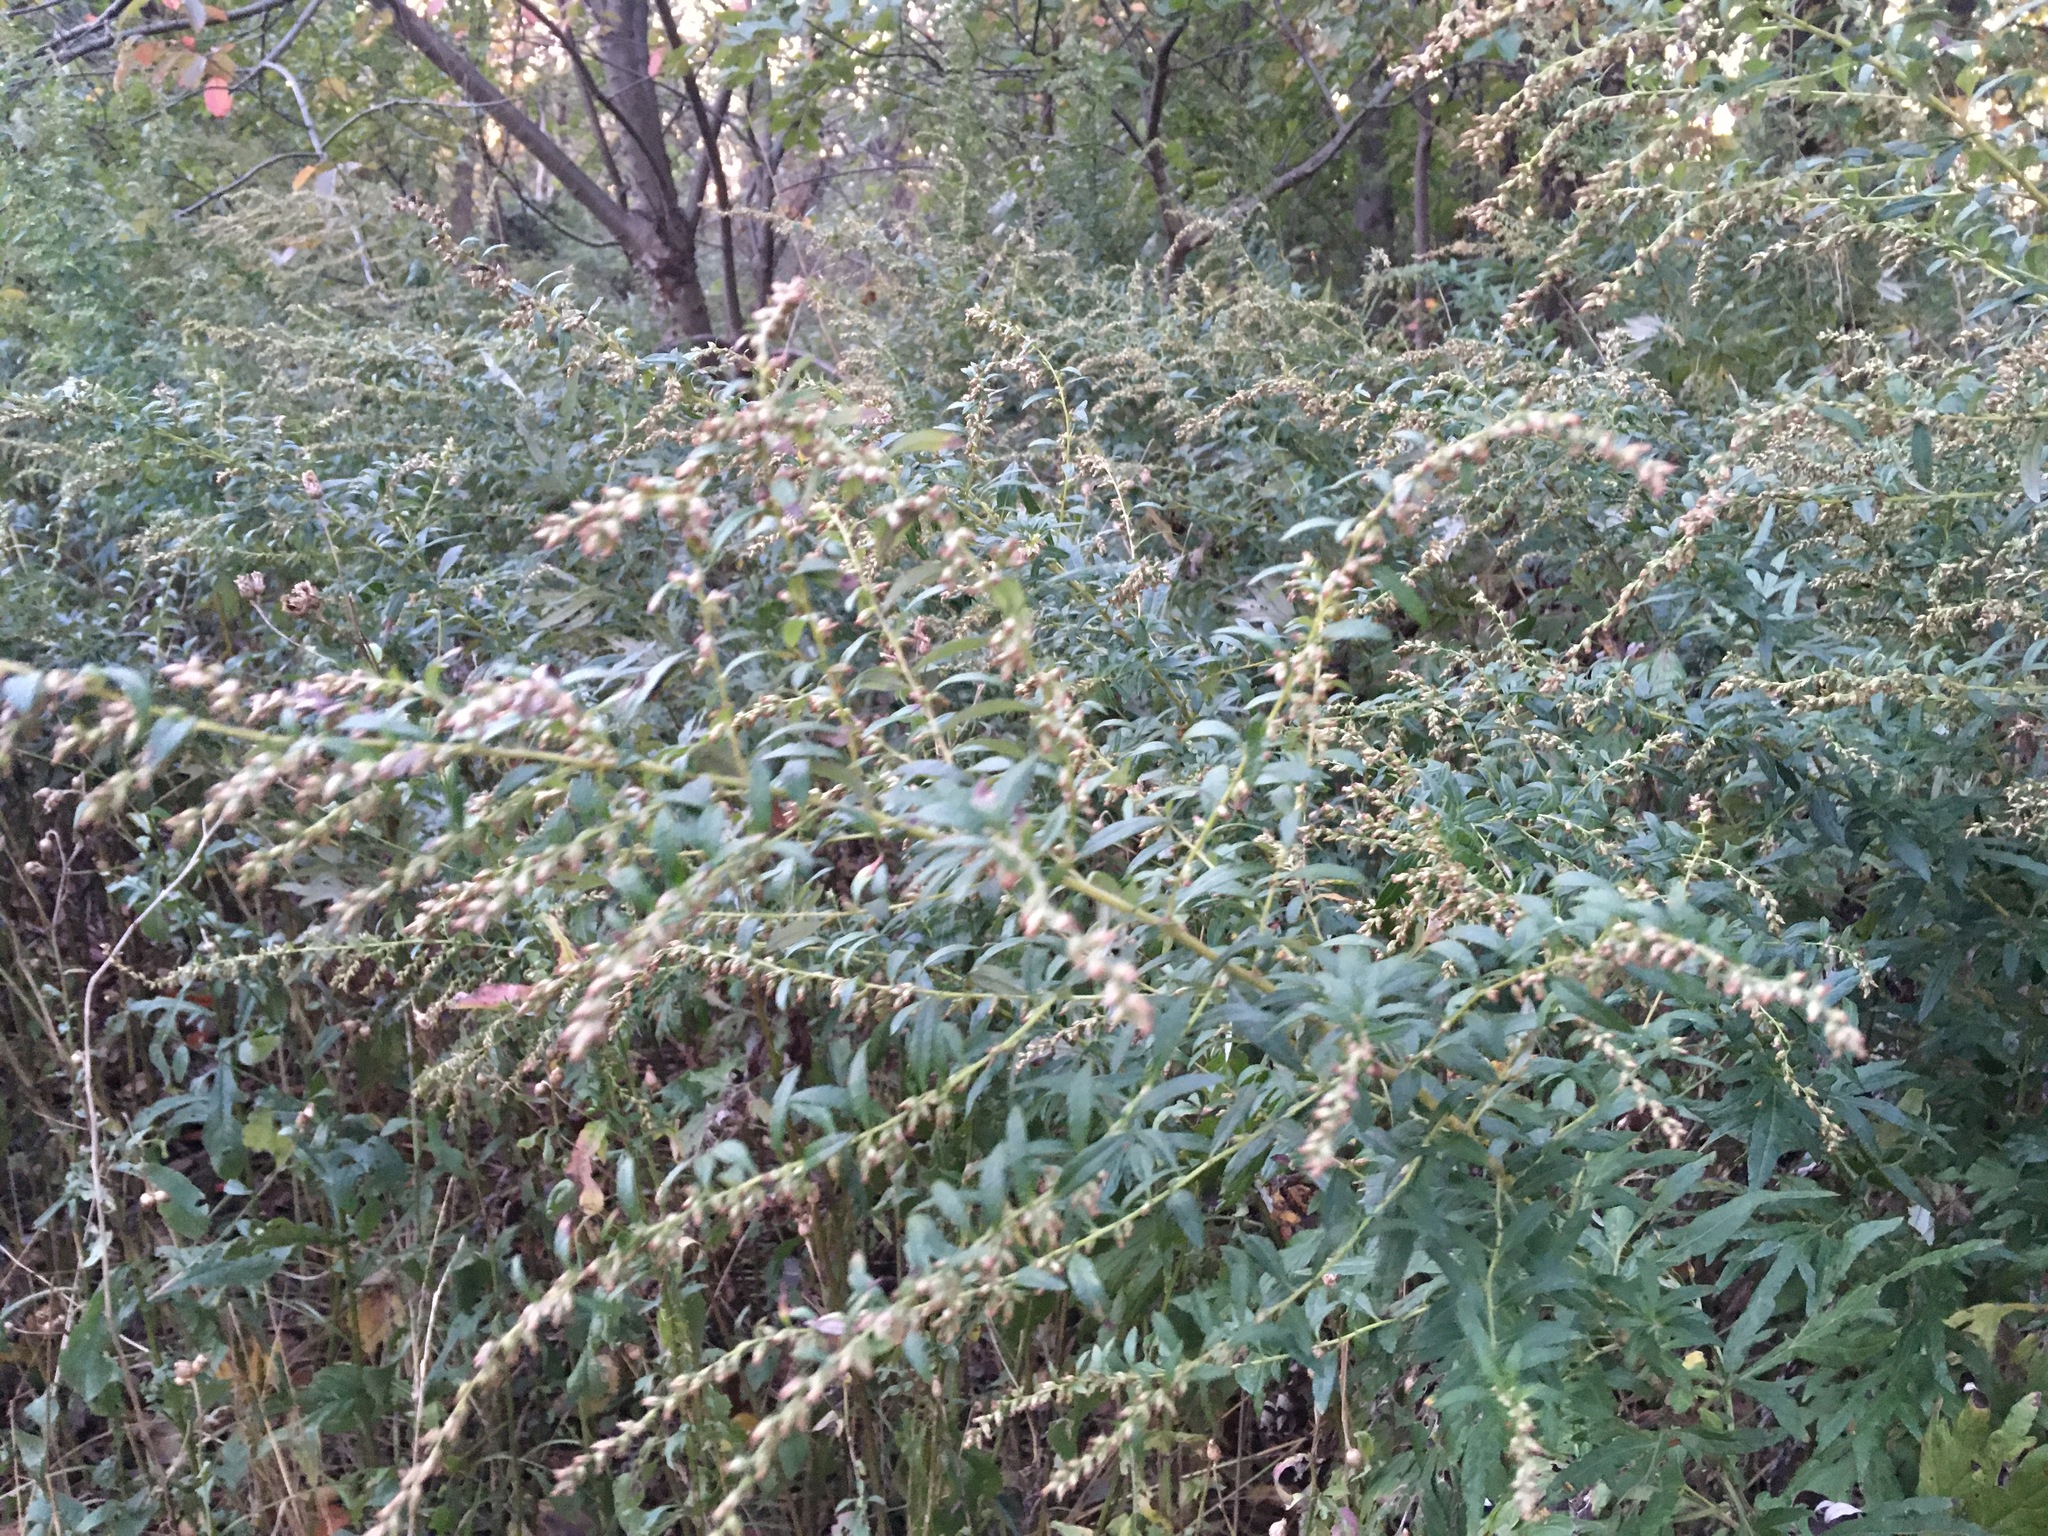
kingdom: Plantae
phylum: Tracheophyta
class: Magnoliopsida
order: Asterales
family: Asteraceae
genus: Artemisia
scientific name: Artemisia vulgaris
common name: Mugwort
